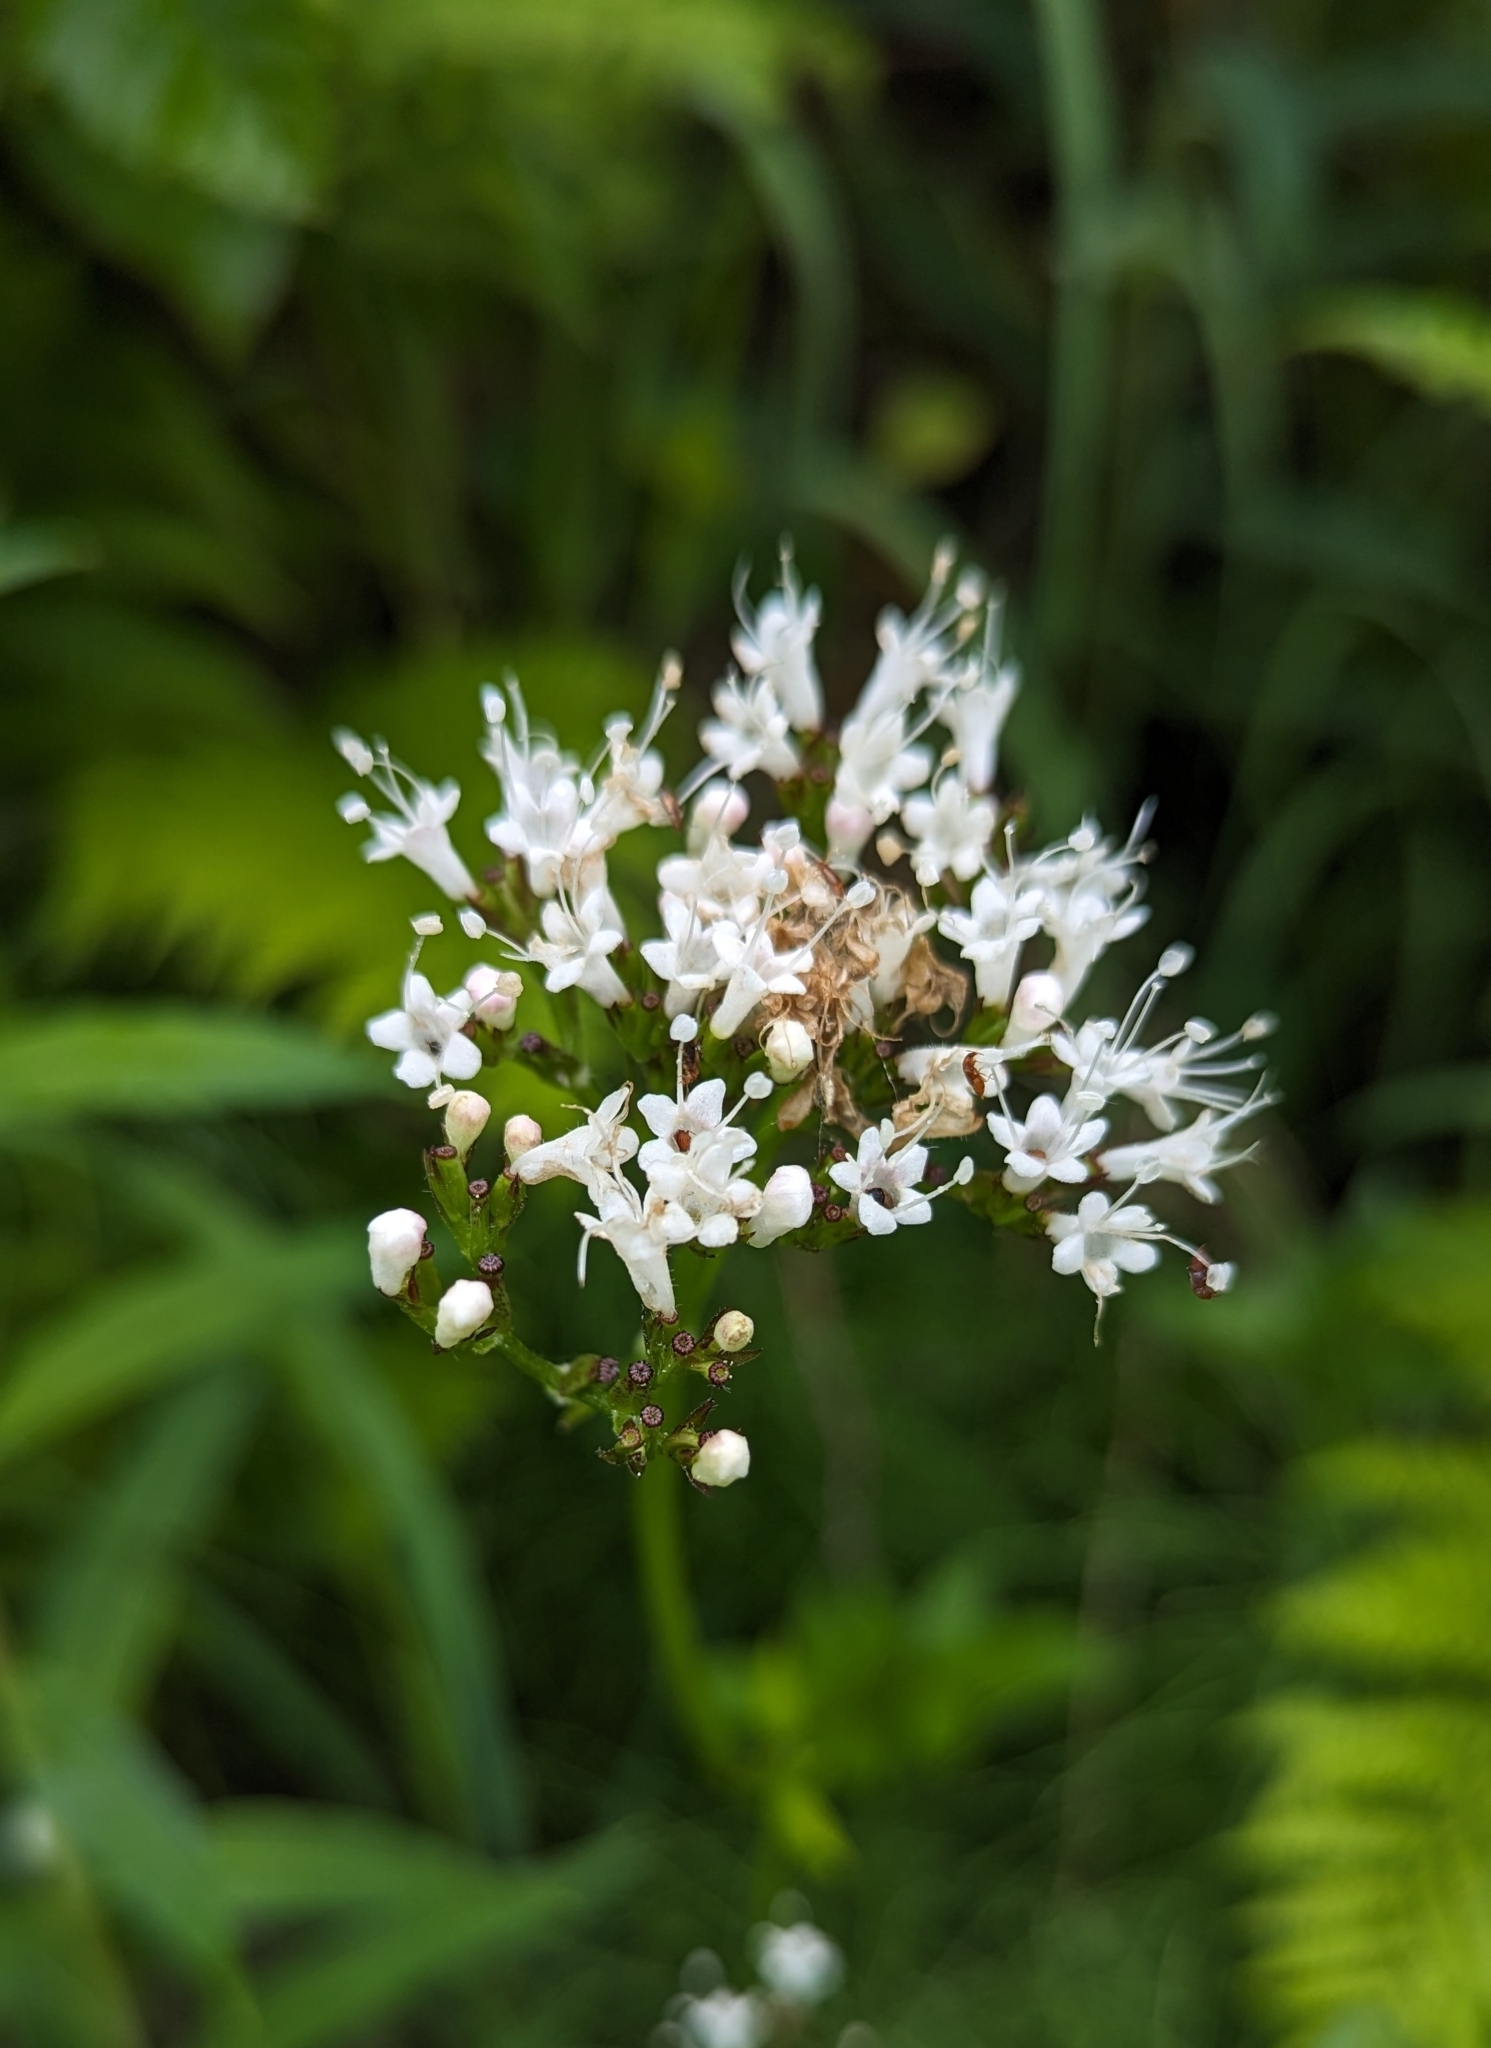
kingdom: Plantae
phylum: Tracheophyta
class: Magnoliopsida
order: Dipsacales
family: Caprifoliaceae
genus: Valeriana
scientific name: Valeriana sitchensis
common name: Pacific valerian
